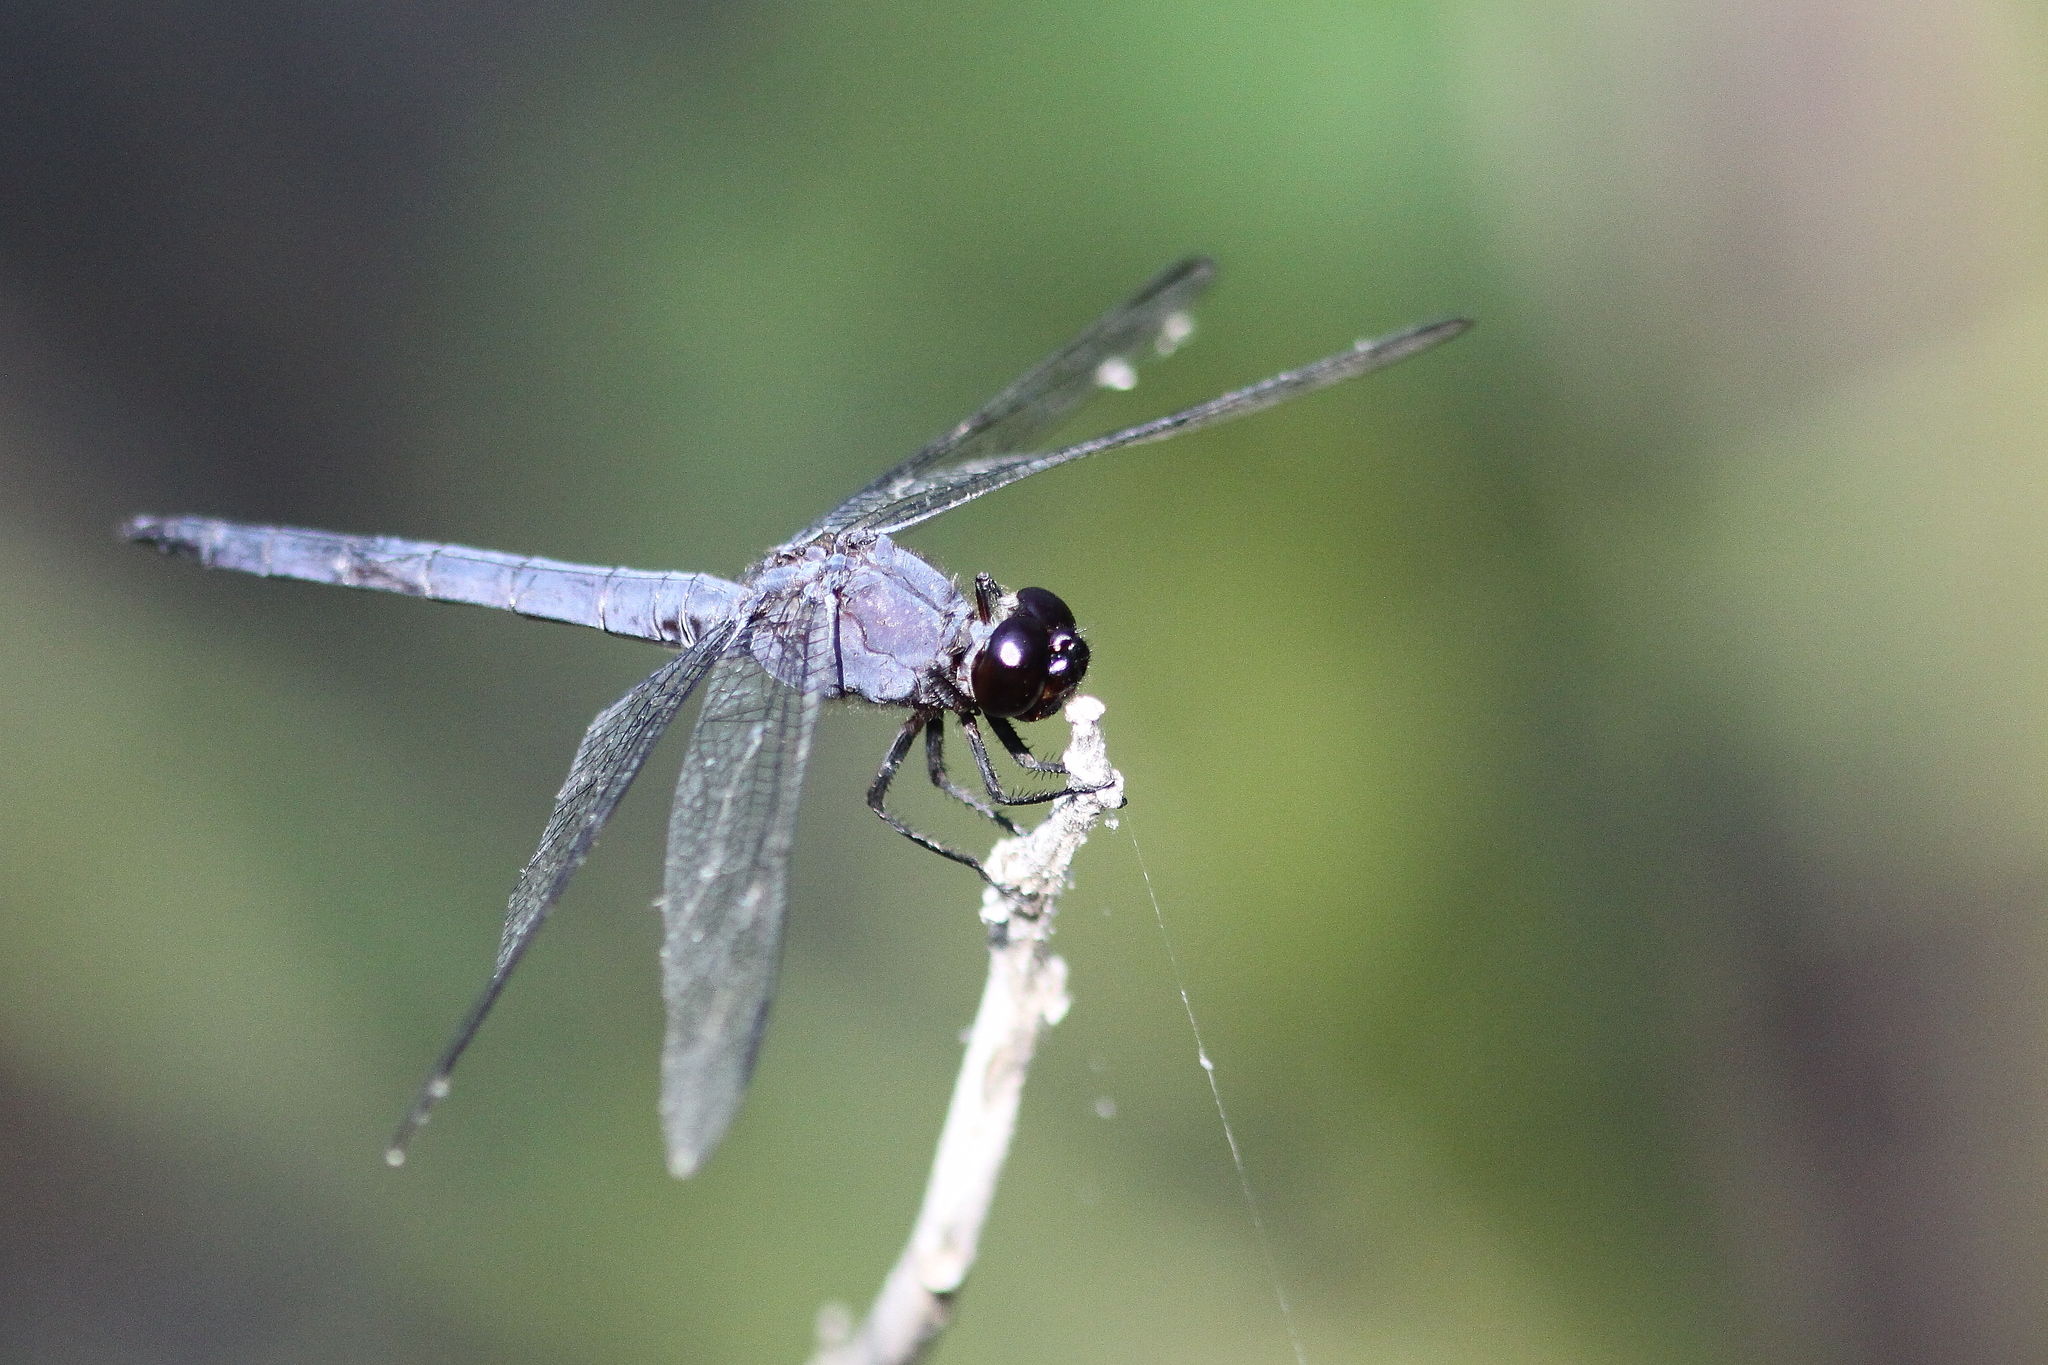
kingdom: Animalia
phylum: Arthropoda
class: Insecta
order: Odonata
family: Libellulidae
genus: Libellula
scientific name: Libellula incesta
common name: Slaty skimmer
